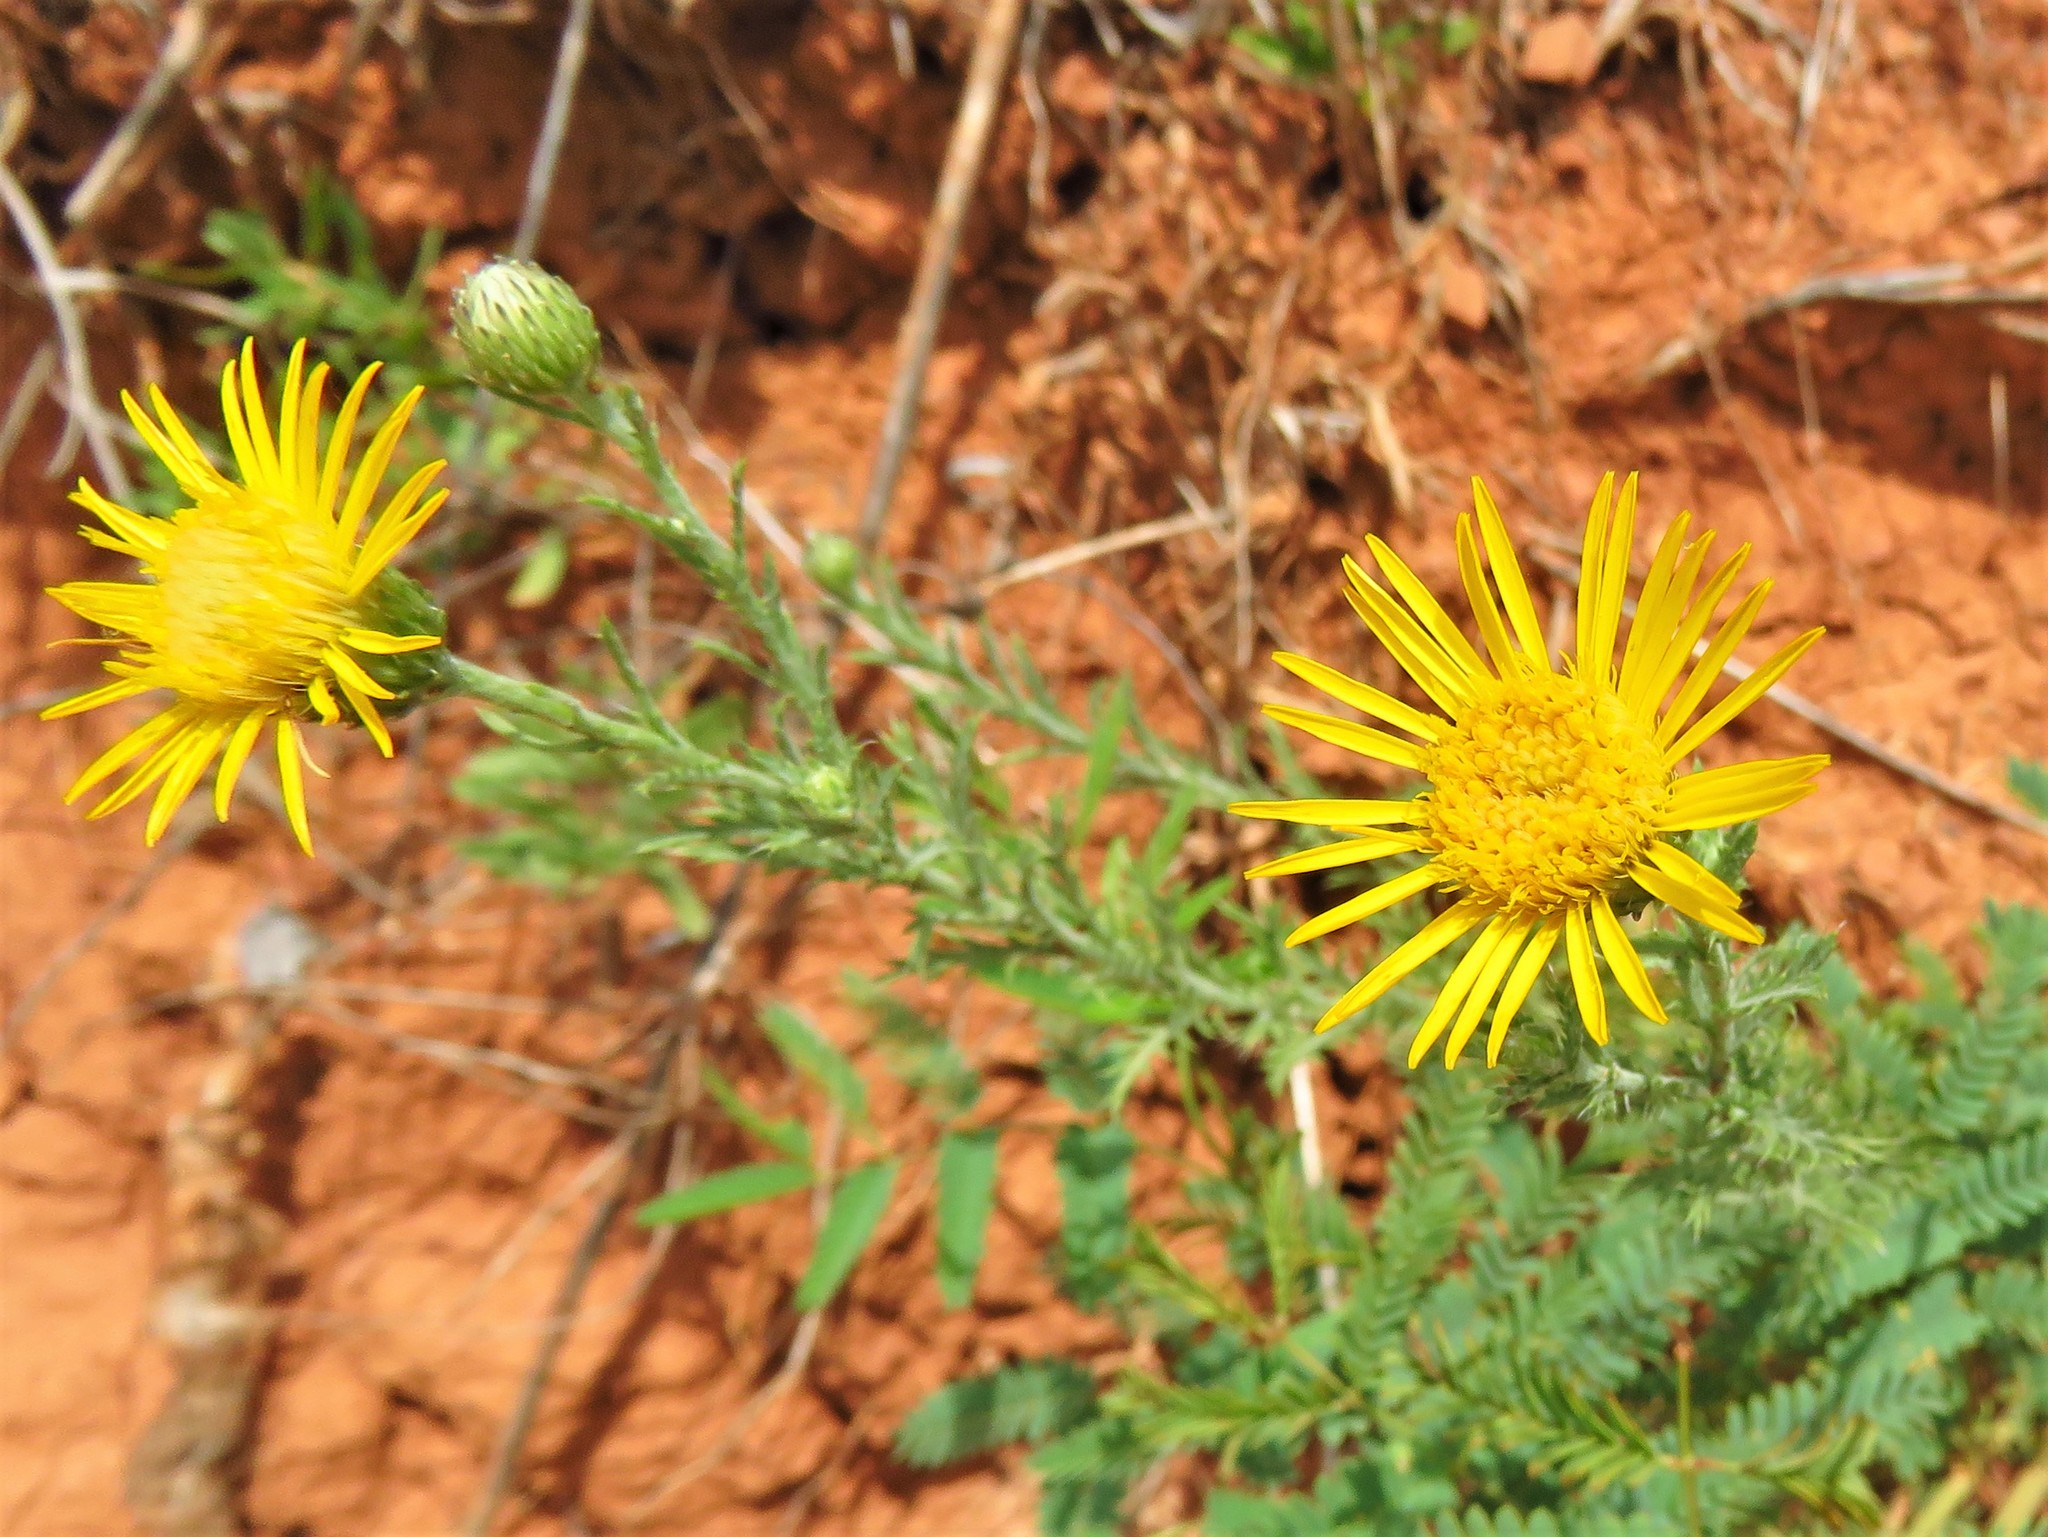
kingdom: Plantae
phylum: Tracheophyta
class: Magnoliopsida
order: Asterales
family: Asteraceae
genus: Xanthisma
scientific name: Xanthisma spinulosum
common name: Spiny goldenweed
